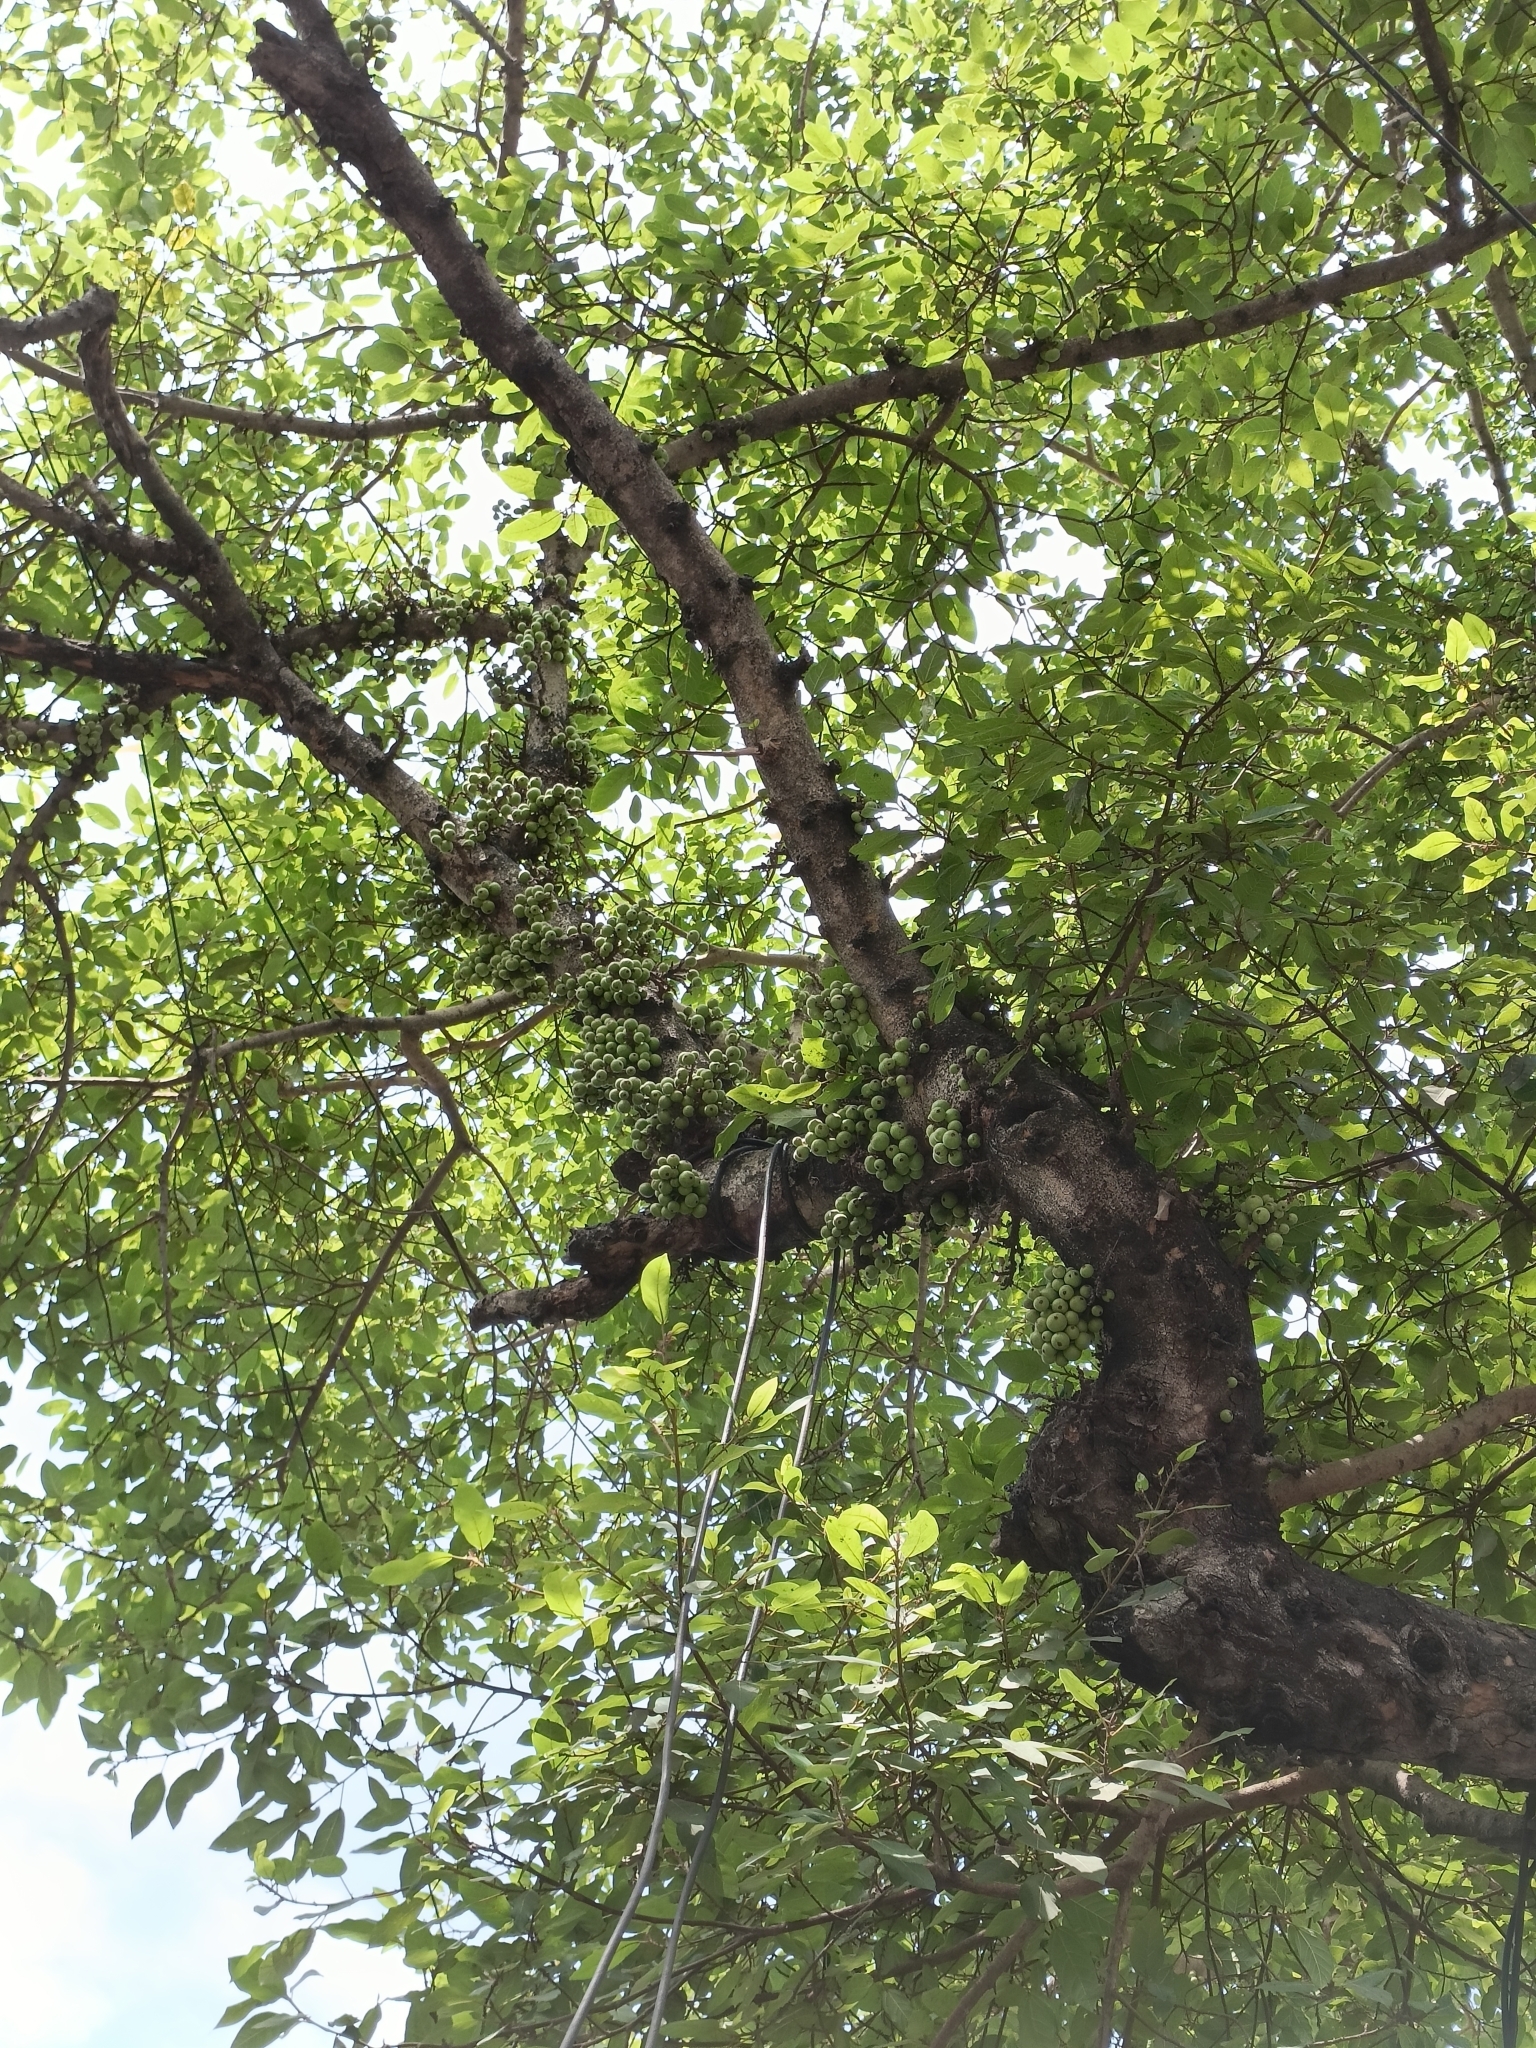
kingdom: Plantae
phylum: Tracheophyta
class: Magnoliopsida
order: Rosales
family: Moraceae
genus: Ficus
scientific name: Ficus racemosa
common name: Cluster fig
